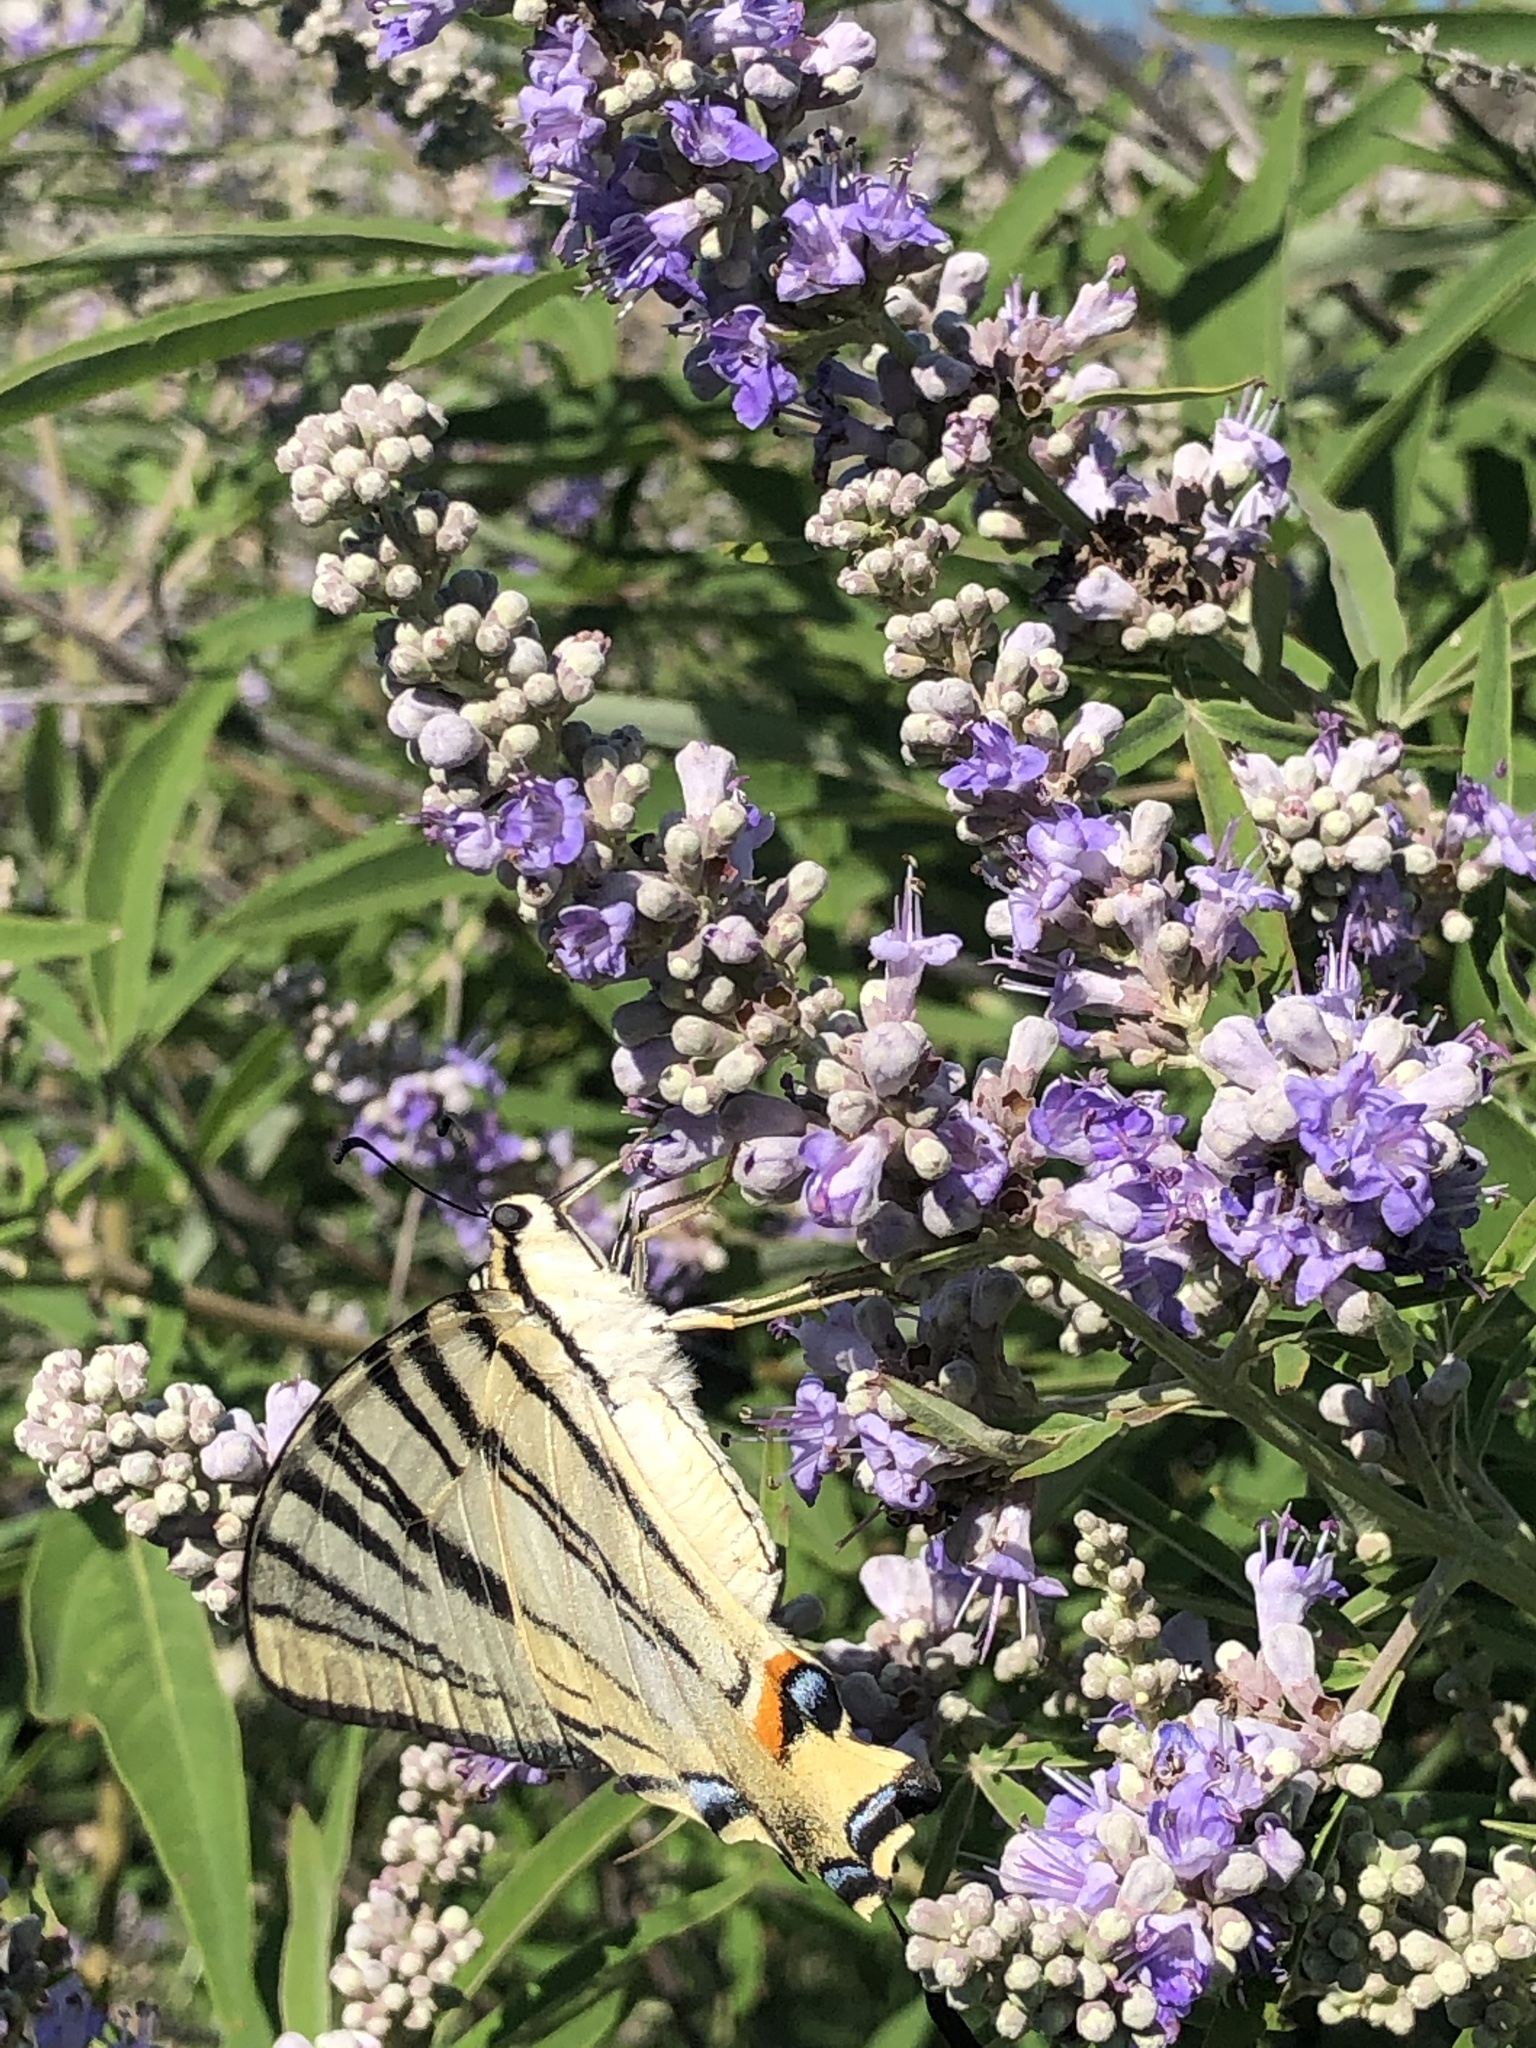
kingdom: Animalia
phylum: Arthropoda
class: Insecta
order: Lepidoptera
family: Papilionidae
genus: Iphiclides
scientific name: Iphiclides podalirius
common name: Scarce swallowtail
